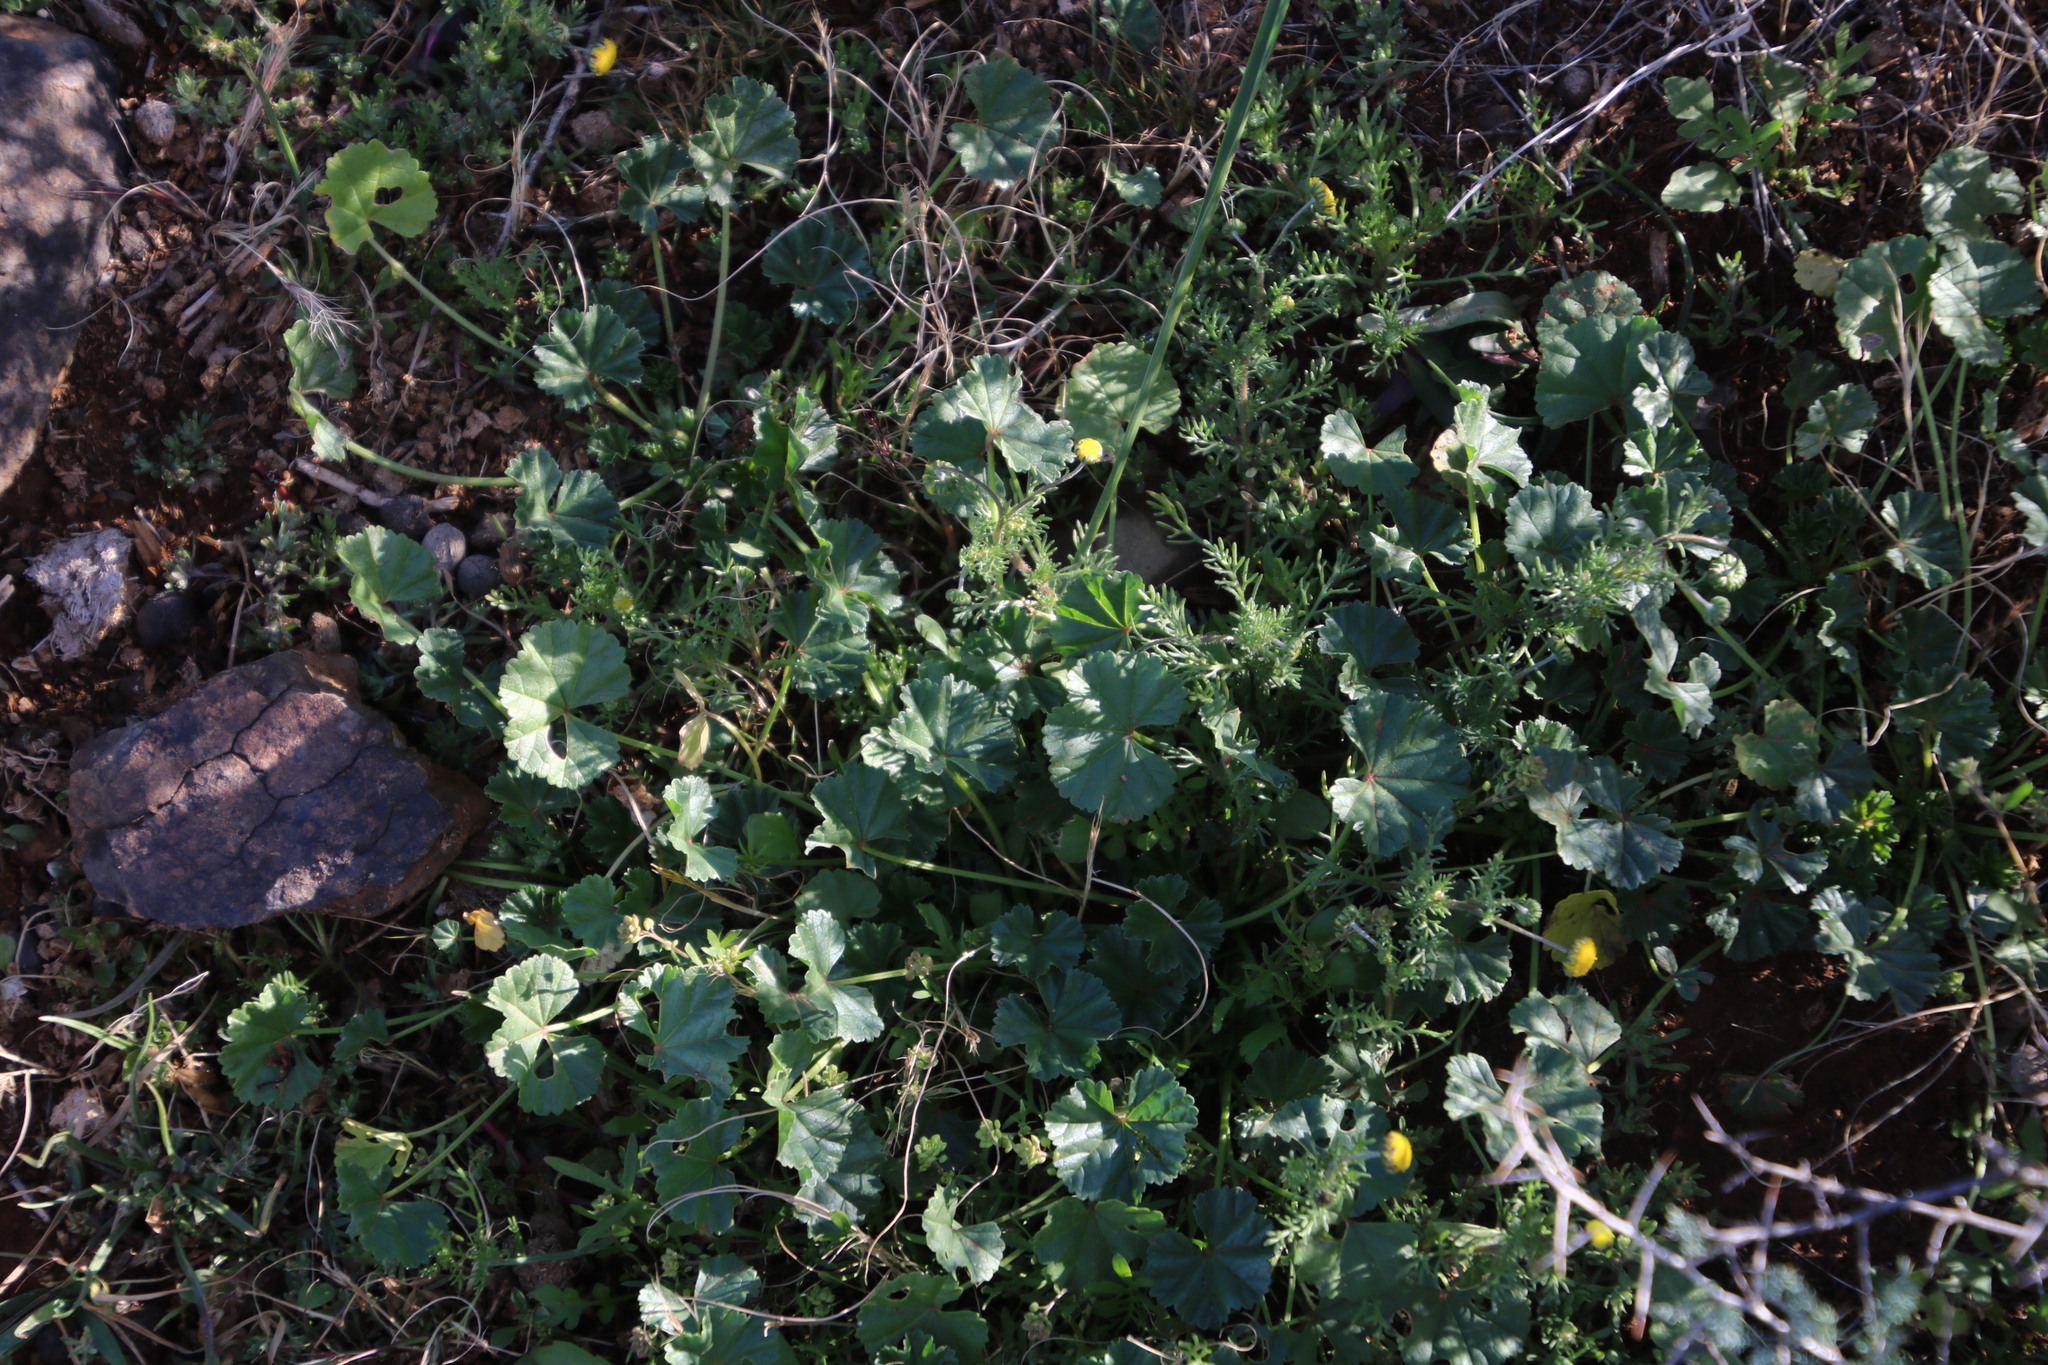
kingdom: Plantae
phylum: Tracheophyta
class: Magnoliopsida
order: Malvales
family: Malvaceae
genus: Malva
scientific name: Malva pusilla
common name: Small mallow
